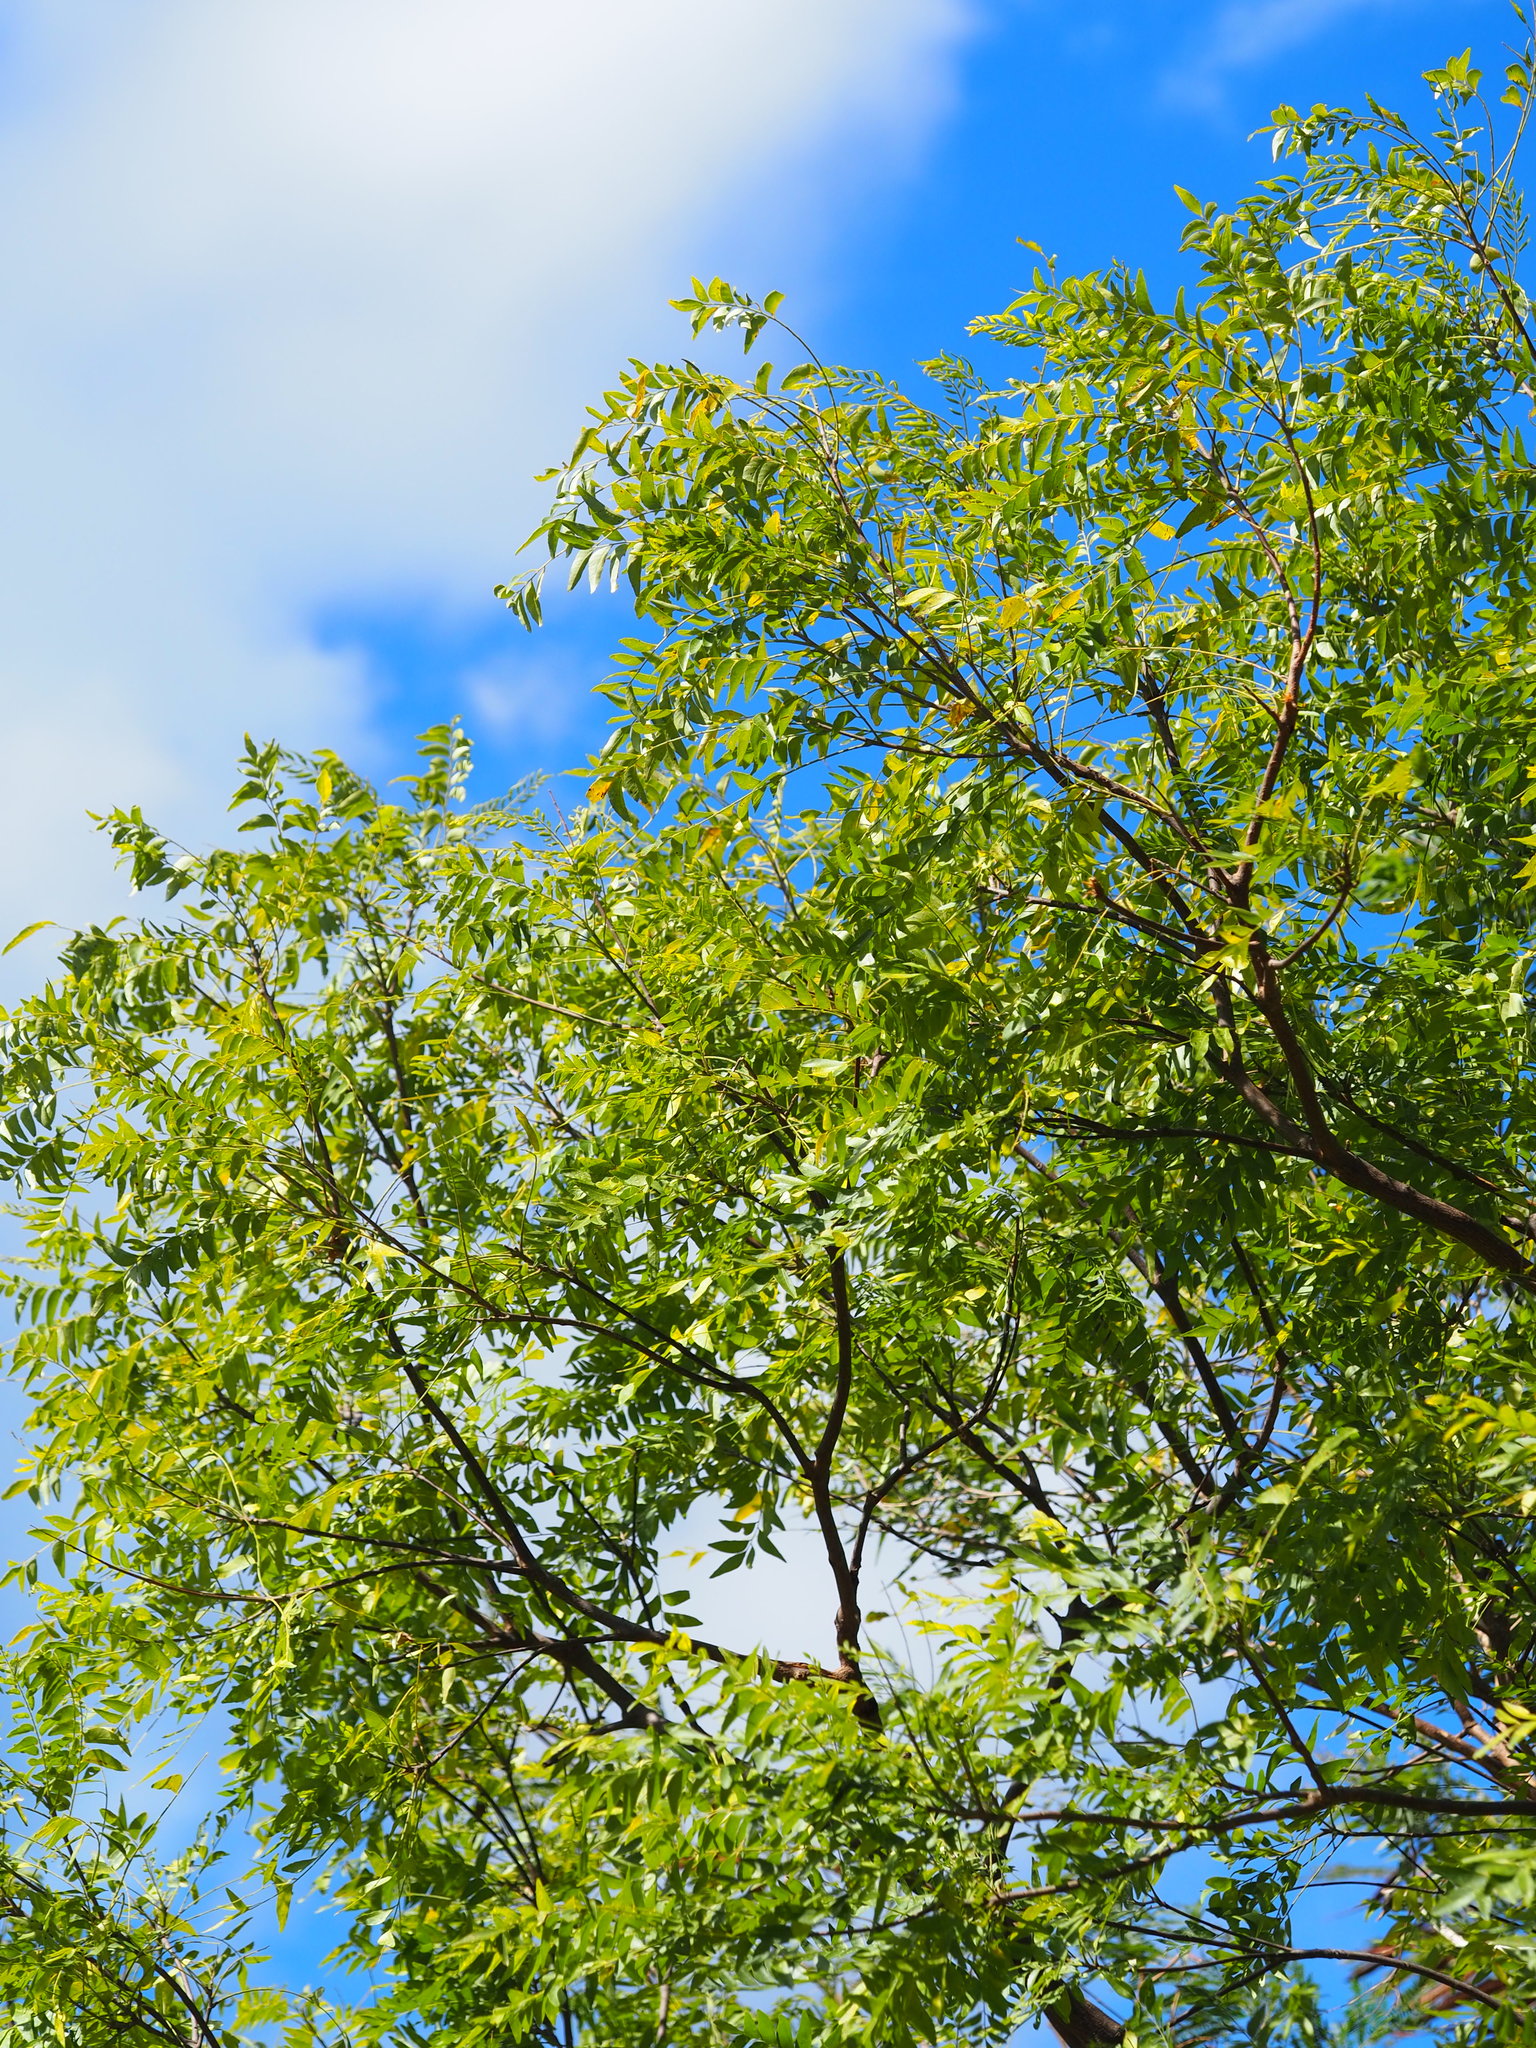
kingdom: Plantae
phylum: Tracheophyta
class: Magnoliopsida
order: Sapindales
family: Rutaceae
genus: Clausena
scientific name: Clausena excavata
